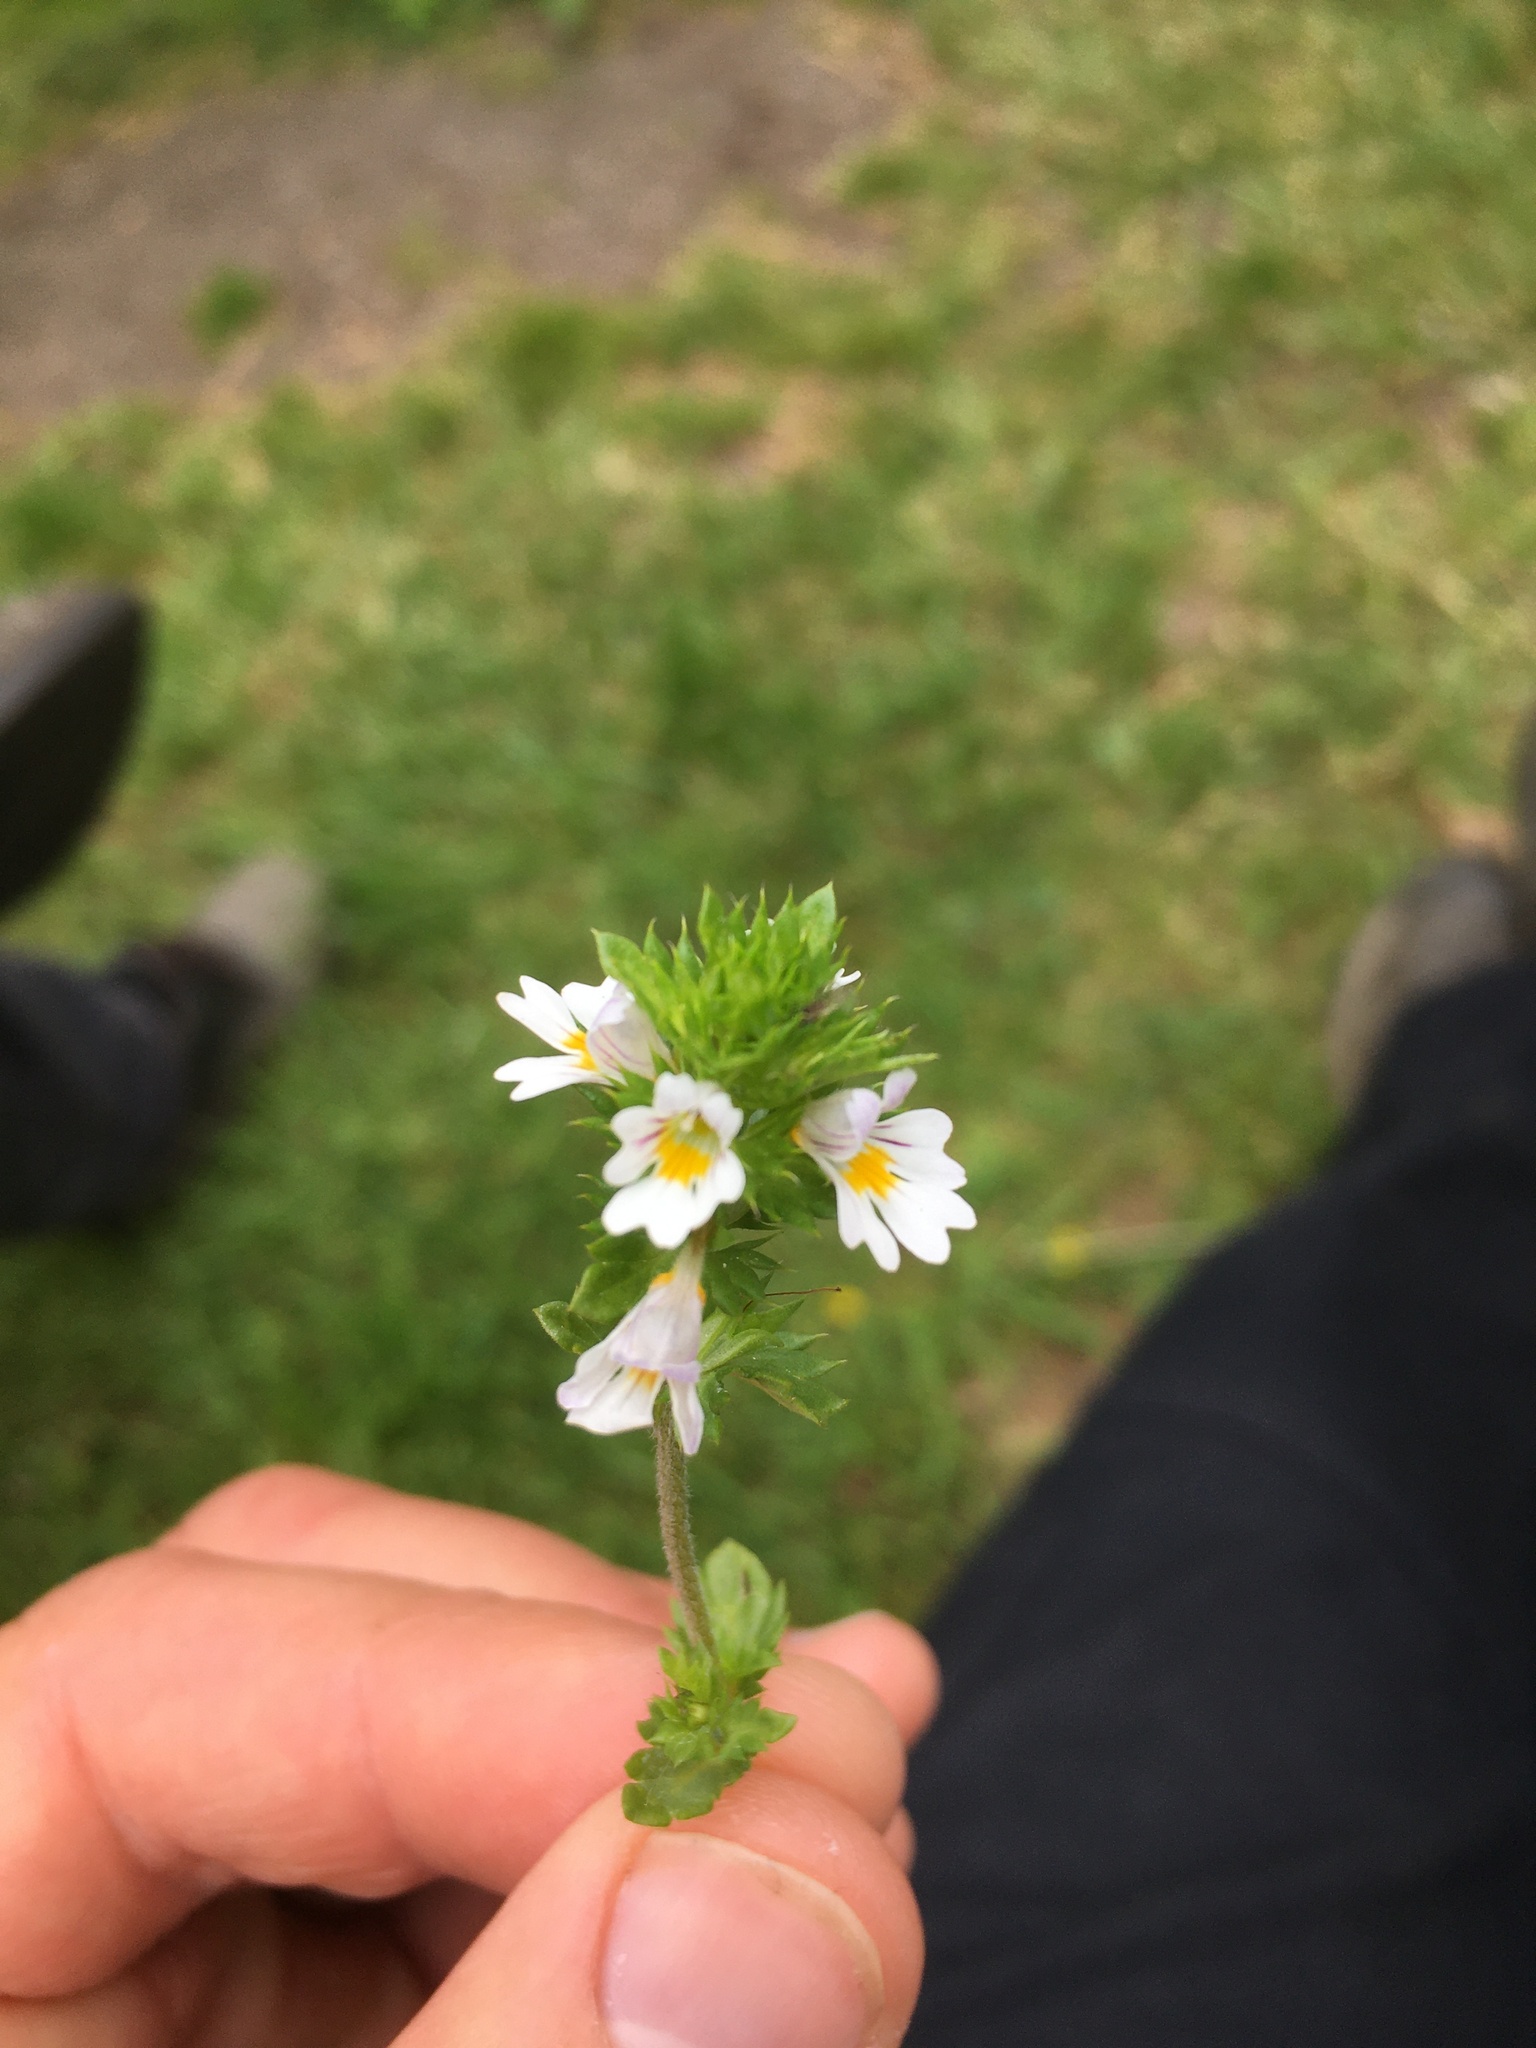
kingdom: Plantae
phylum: Tracheophyta
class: Magnoliopsida
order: Lamiales
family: Orobanchaceae
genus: Euphrasia
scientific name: Euphrasia nemorosa
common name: Common eyebright
